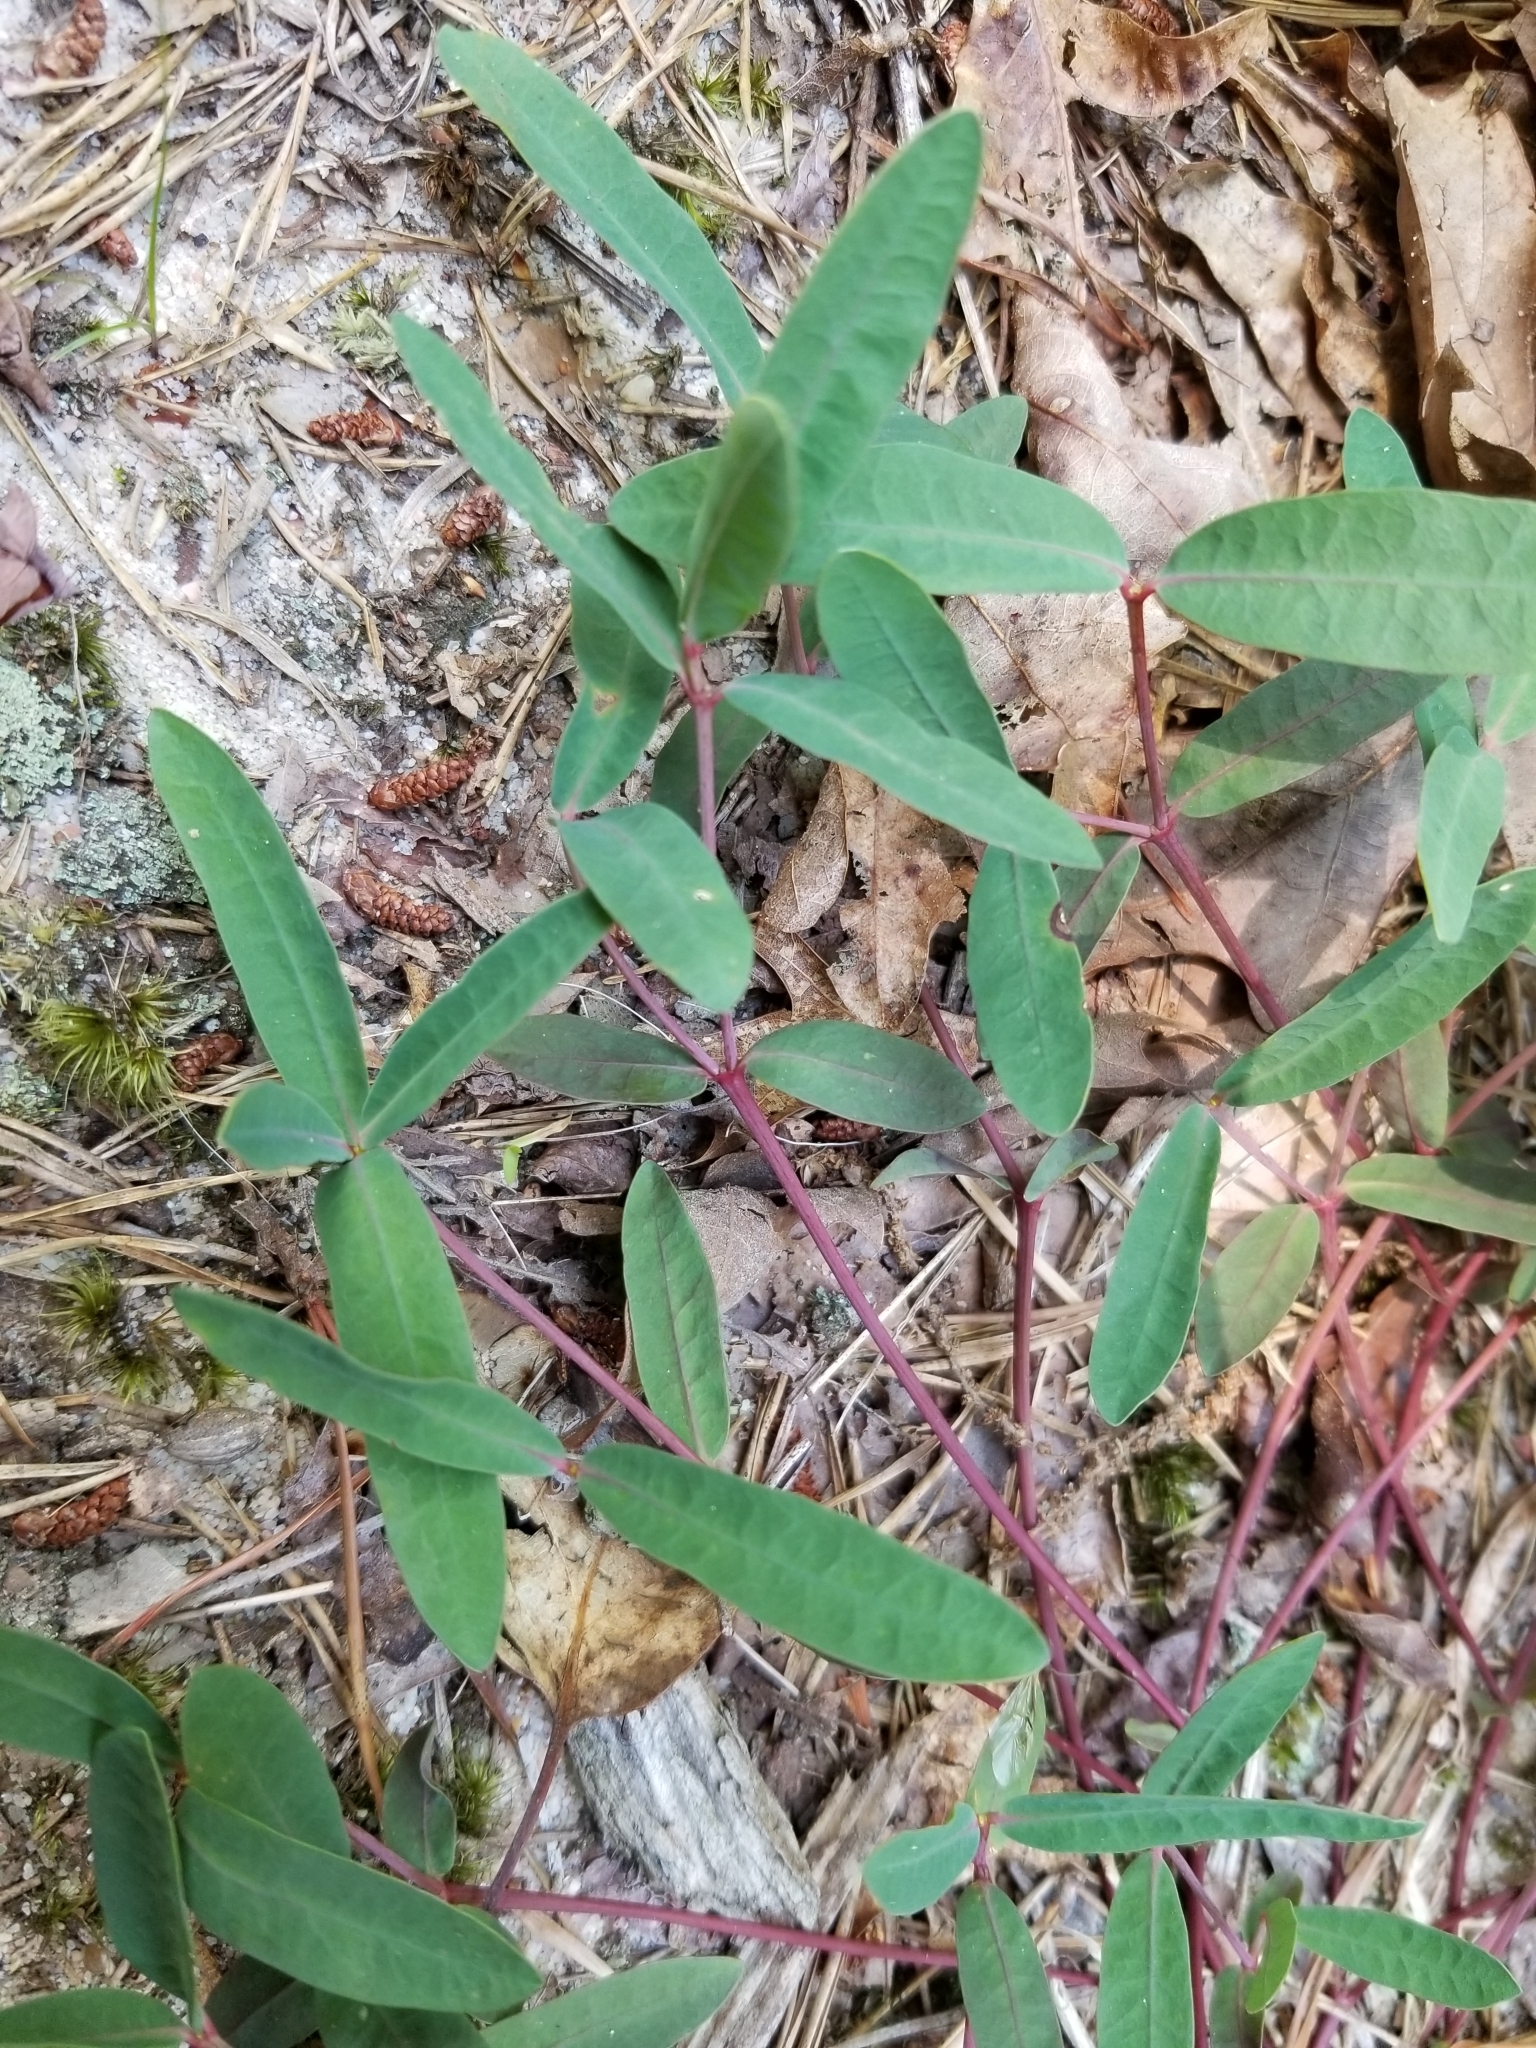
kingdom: Plantae
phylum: Tracheophyta
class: Magnoliopsida
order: Malpighiales
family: Euphorbiaceae
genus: Euphorbia
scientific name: Euphorbia ipecacuanhae
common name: Carolina ipecac
